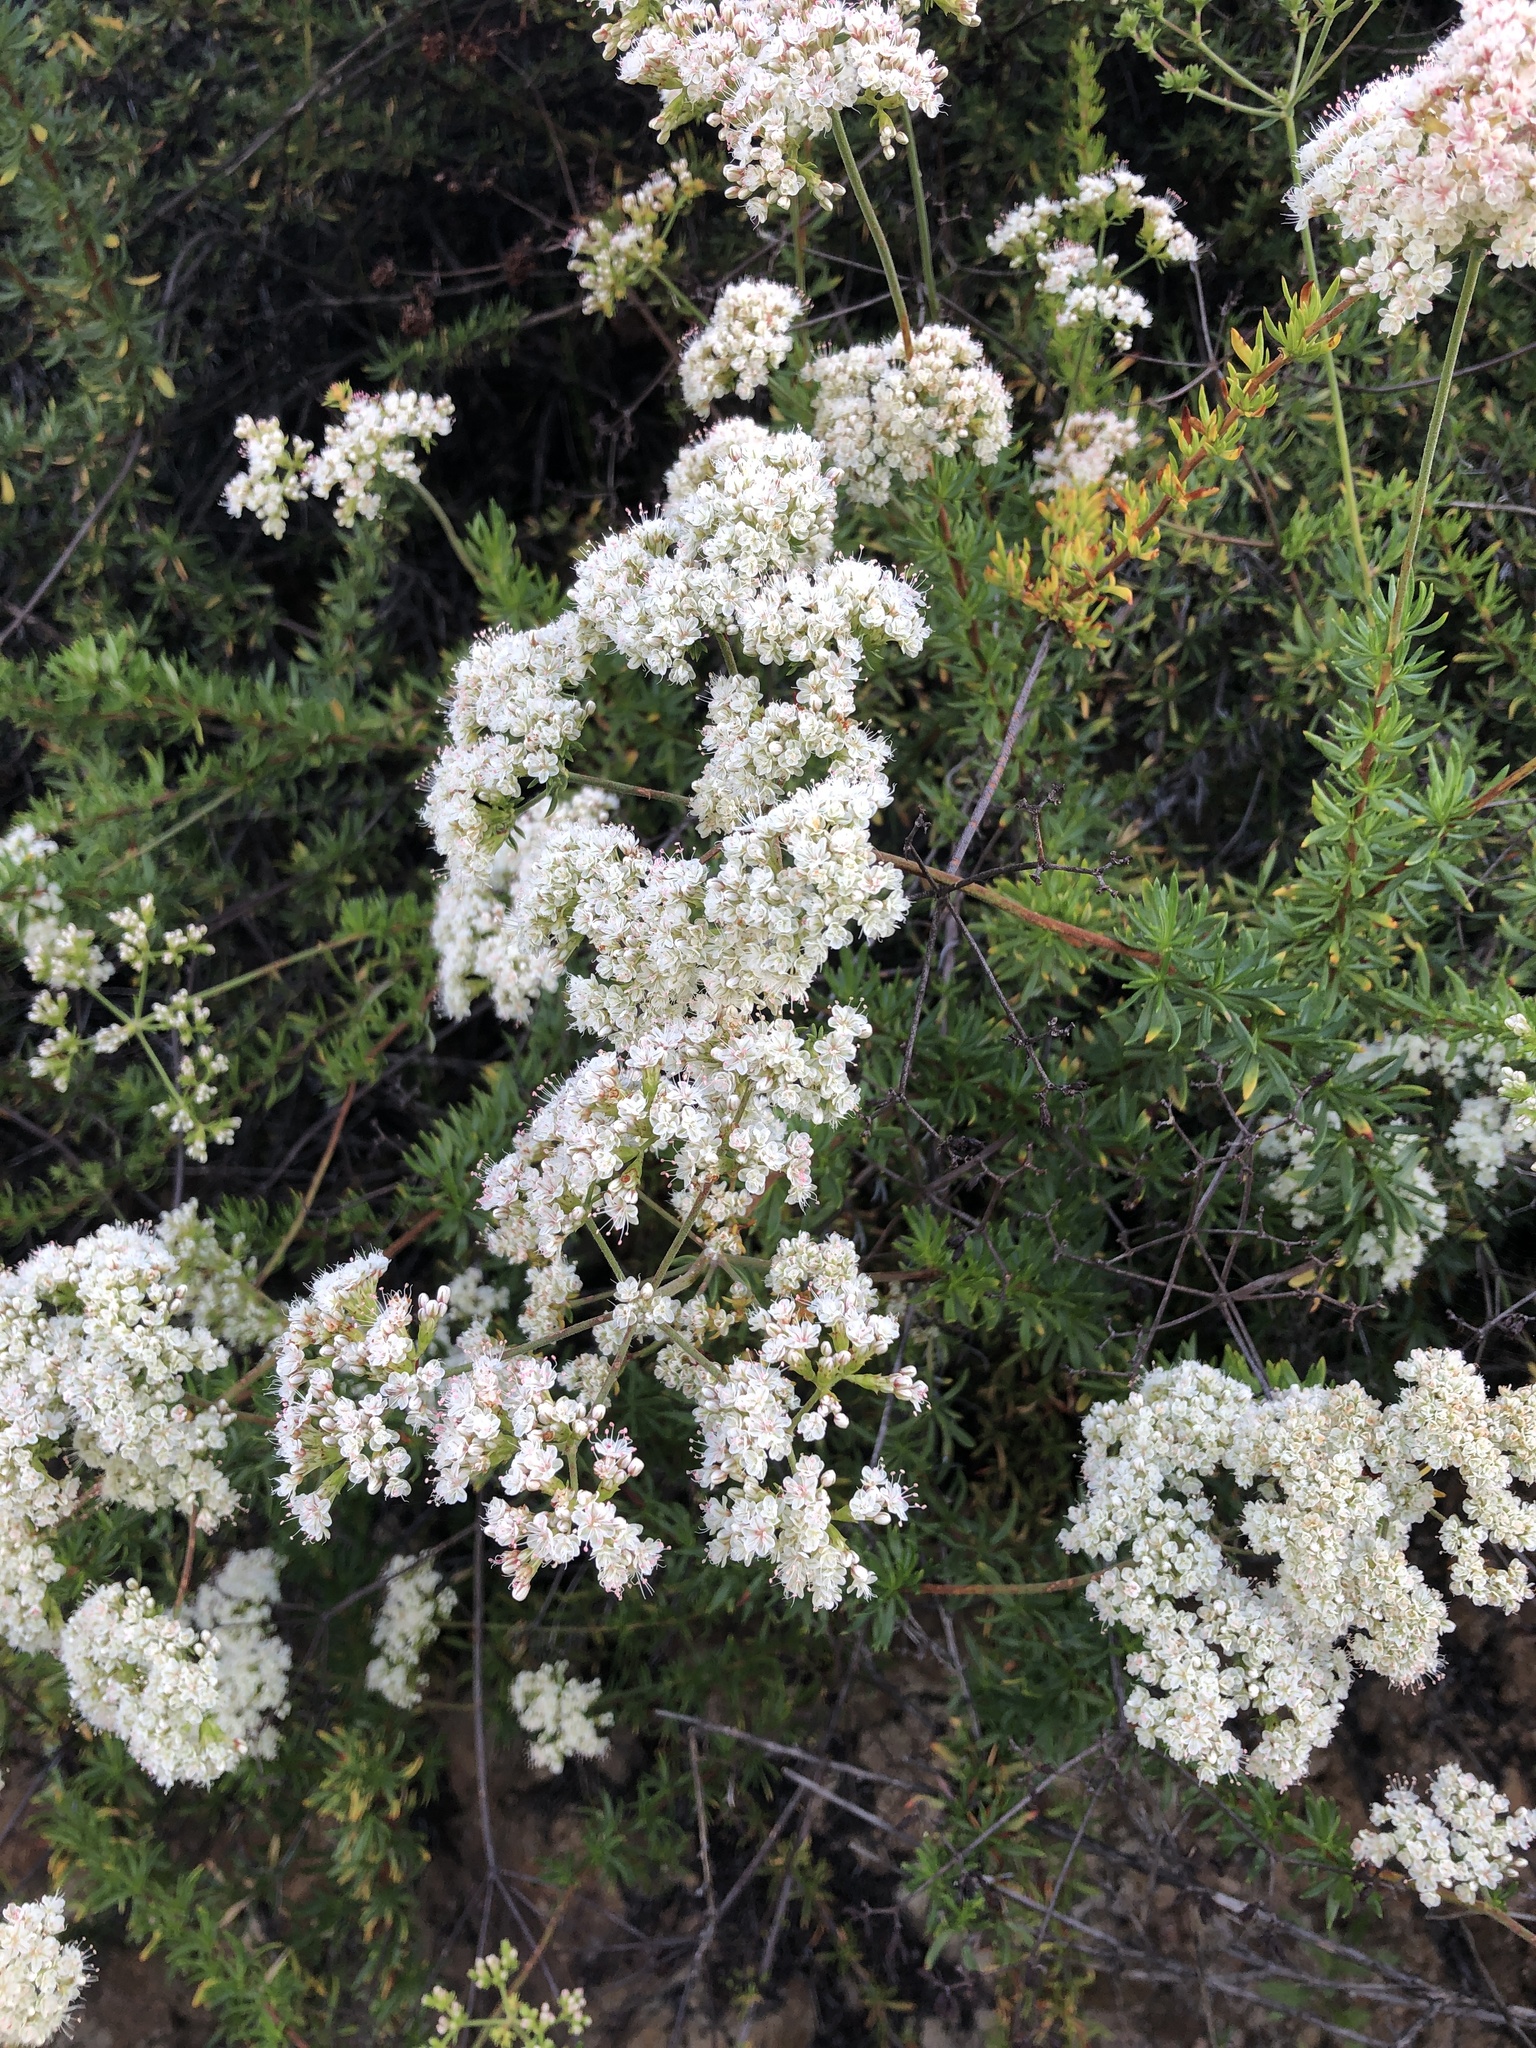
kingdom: Plantae
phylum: Tracheophyta
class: Magnoliopsida
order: Caryophyllales
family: Polygonaceae
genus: Eriogonum
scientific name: Eriogonum fasciculatum
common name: California wild buckwheat
